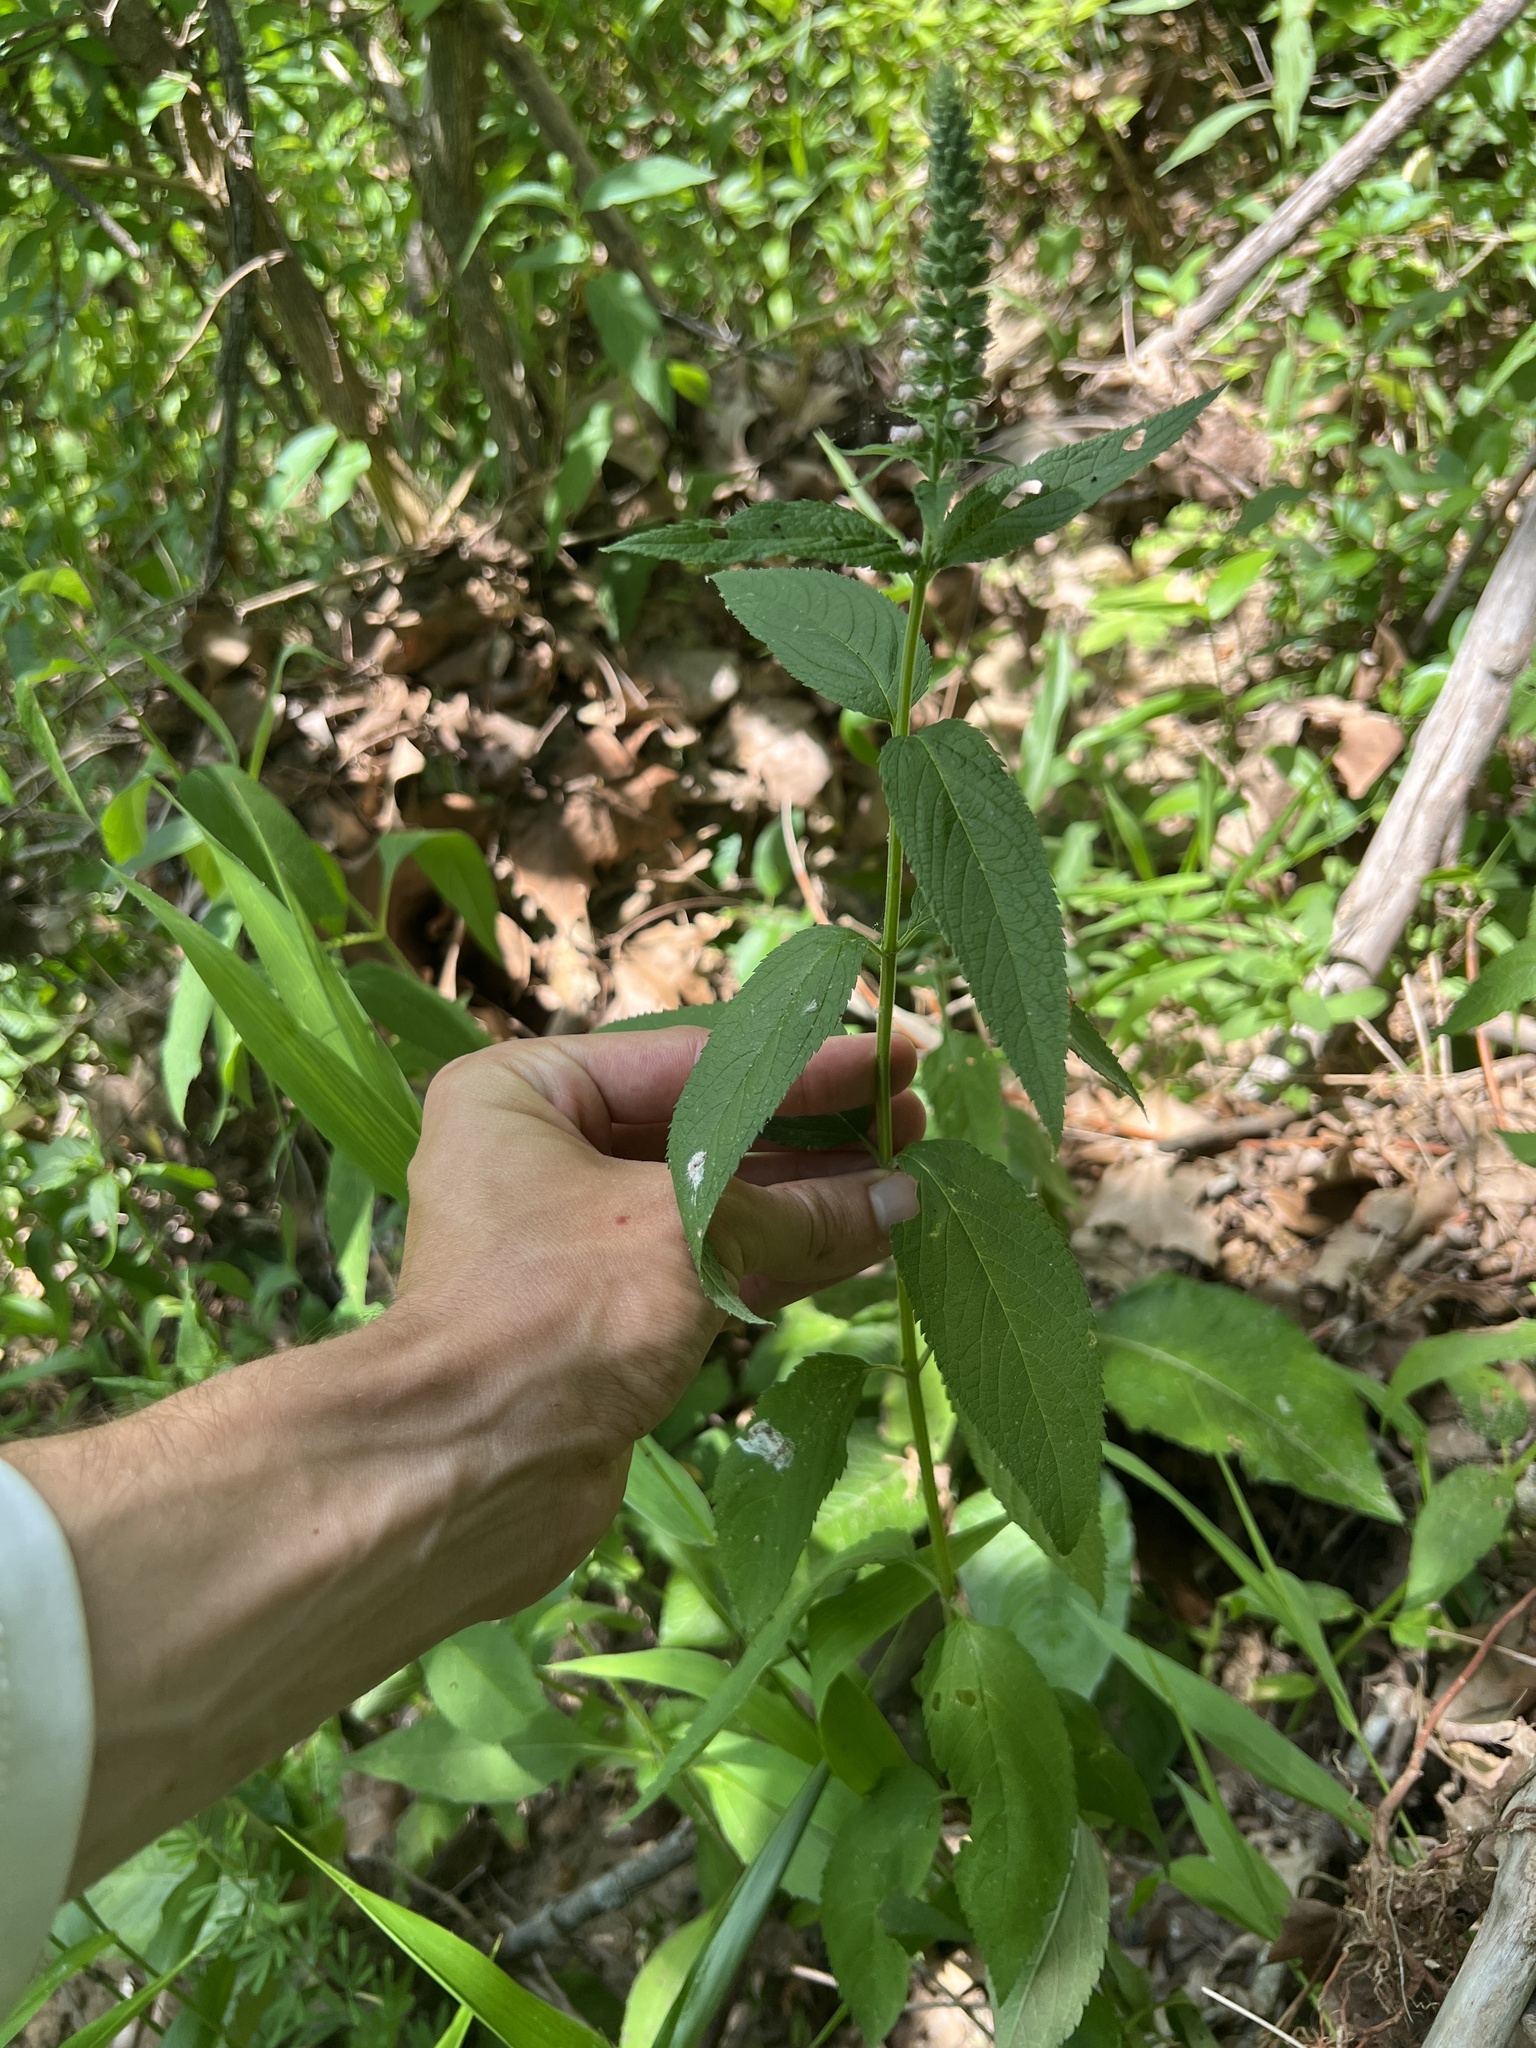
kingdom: Plantae
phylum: Tracheophyta
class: Magnoliopsida
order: Lamiales
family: Lamiaceae
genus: Teucrium
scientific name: Teucrium canadense
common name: American germander
